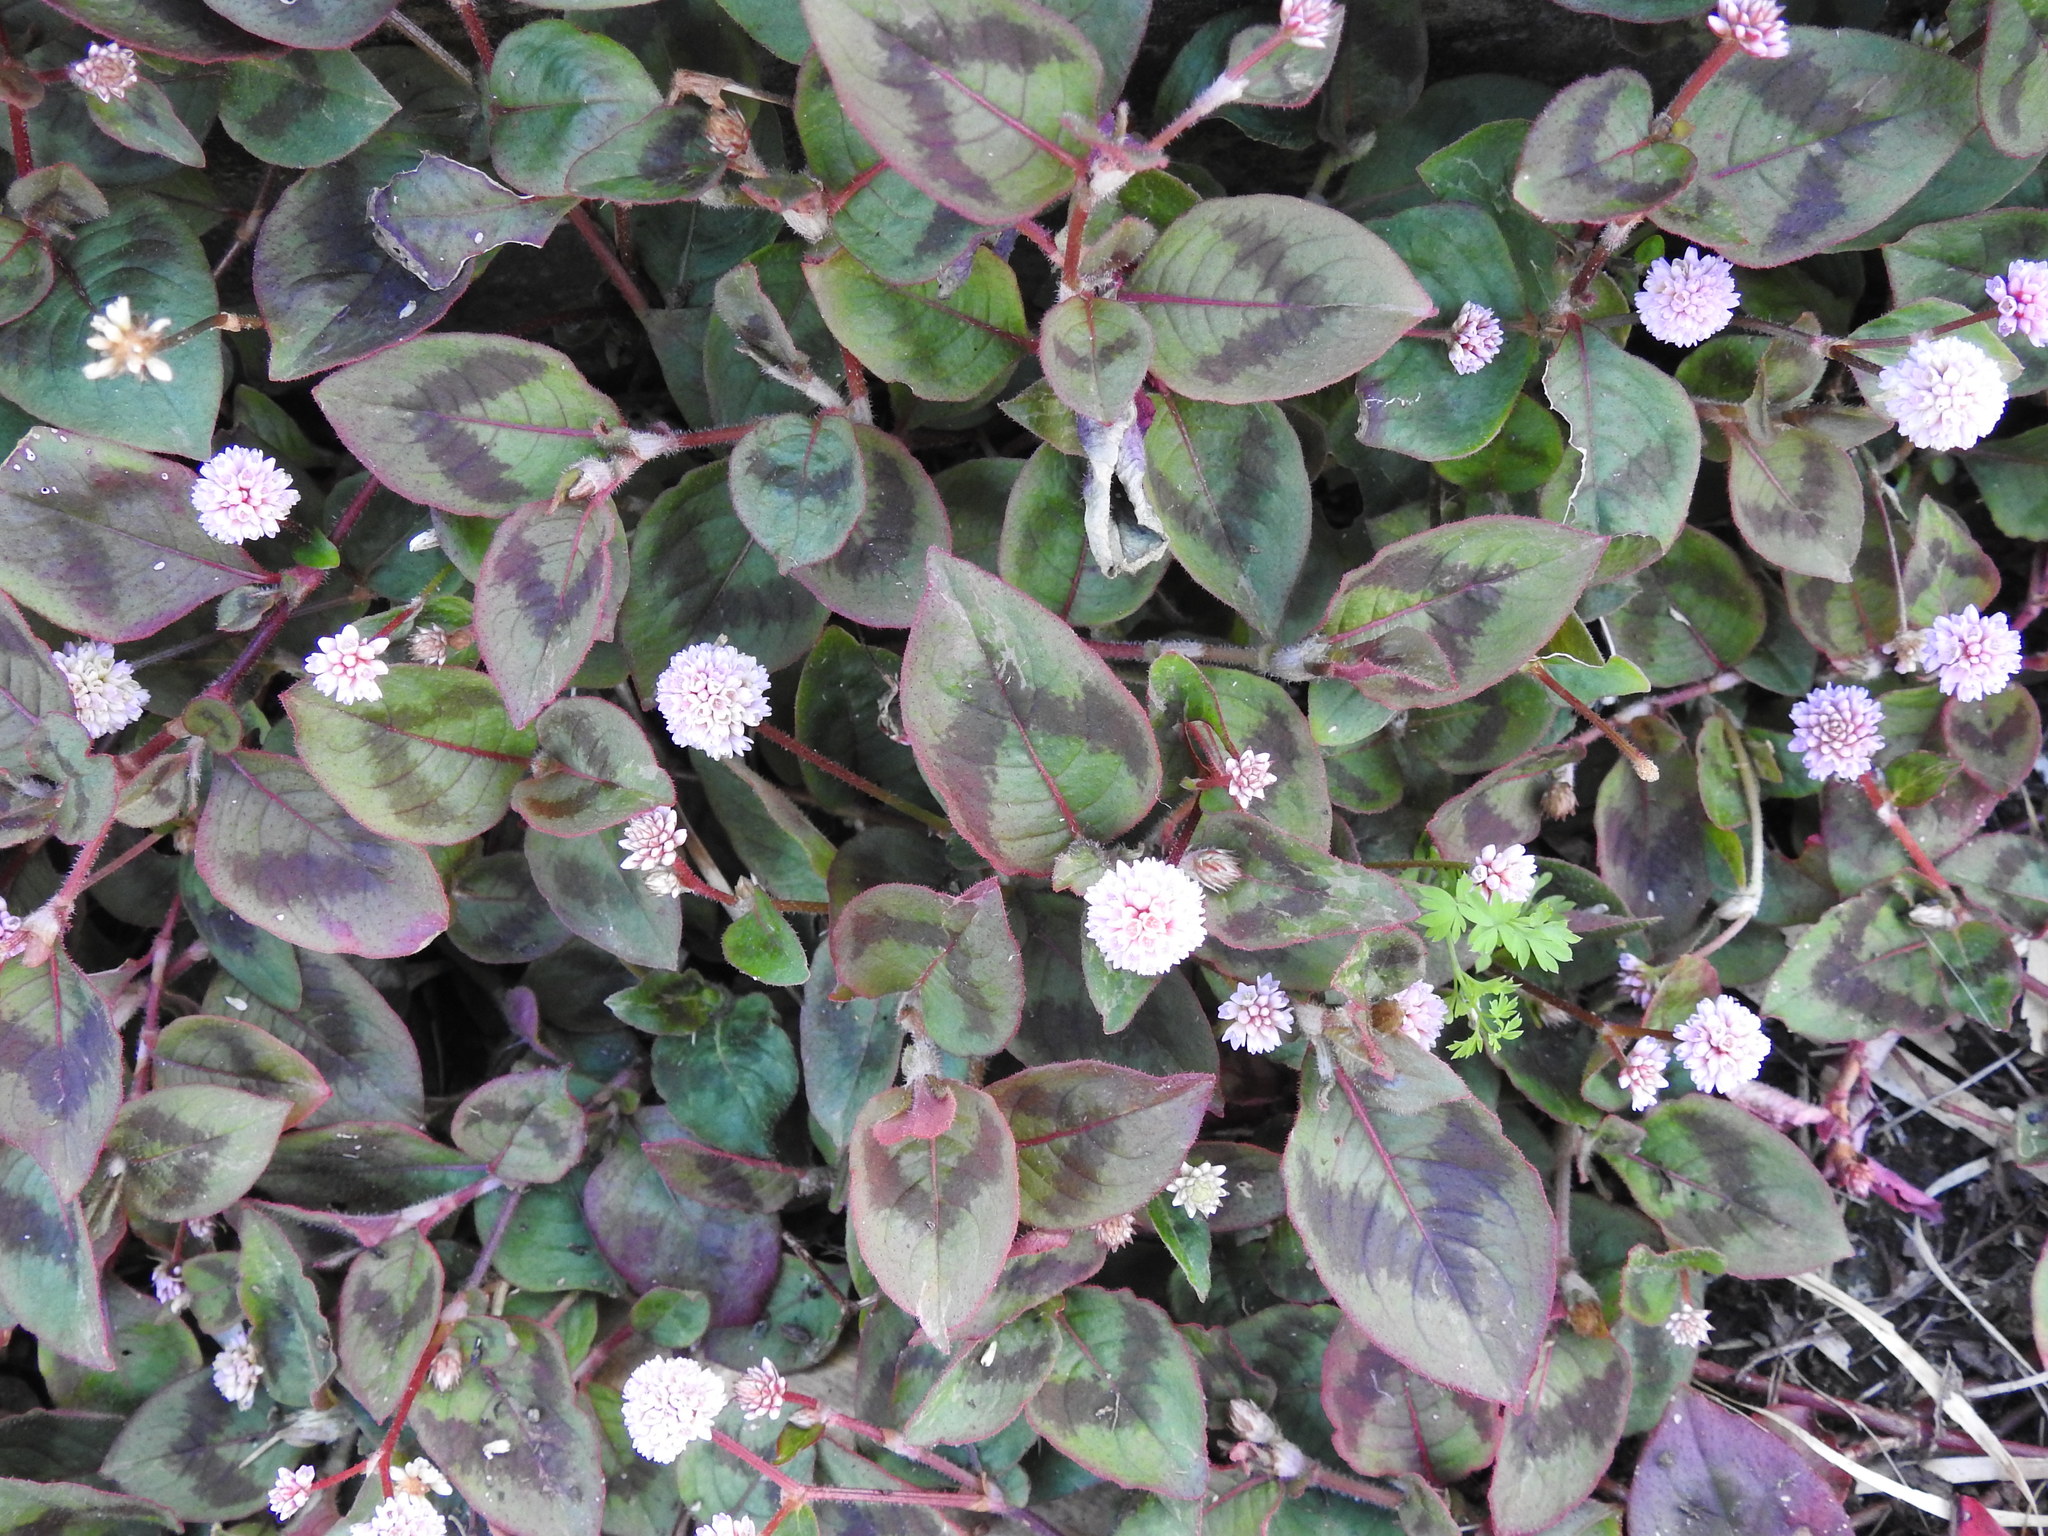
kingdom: Plantae
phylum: Tracheophyta
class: Magnoliopsida
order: Caryophyllales
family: Polygonaceae
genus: Persicaria
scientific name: Persicaria capitata
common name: Pinkhead smartweed
